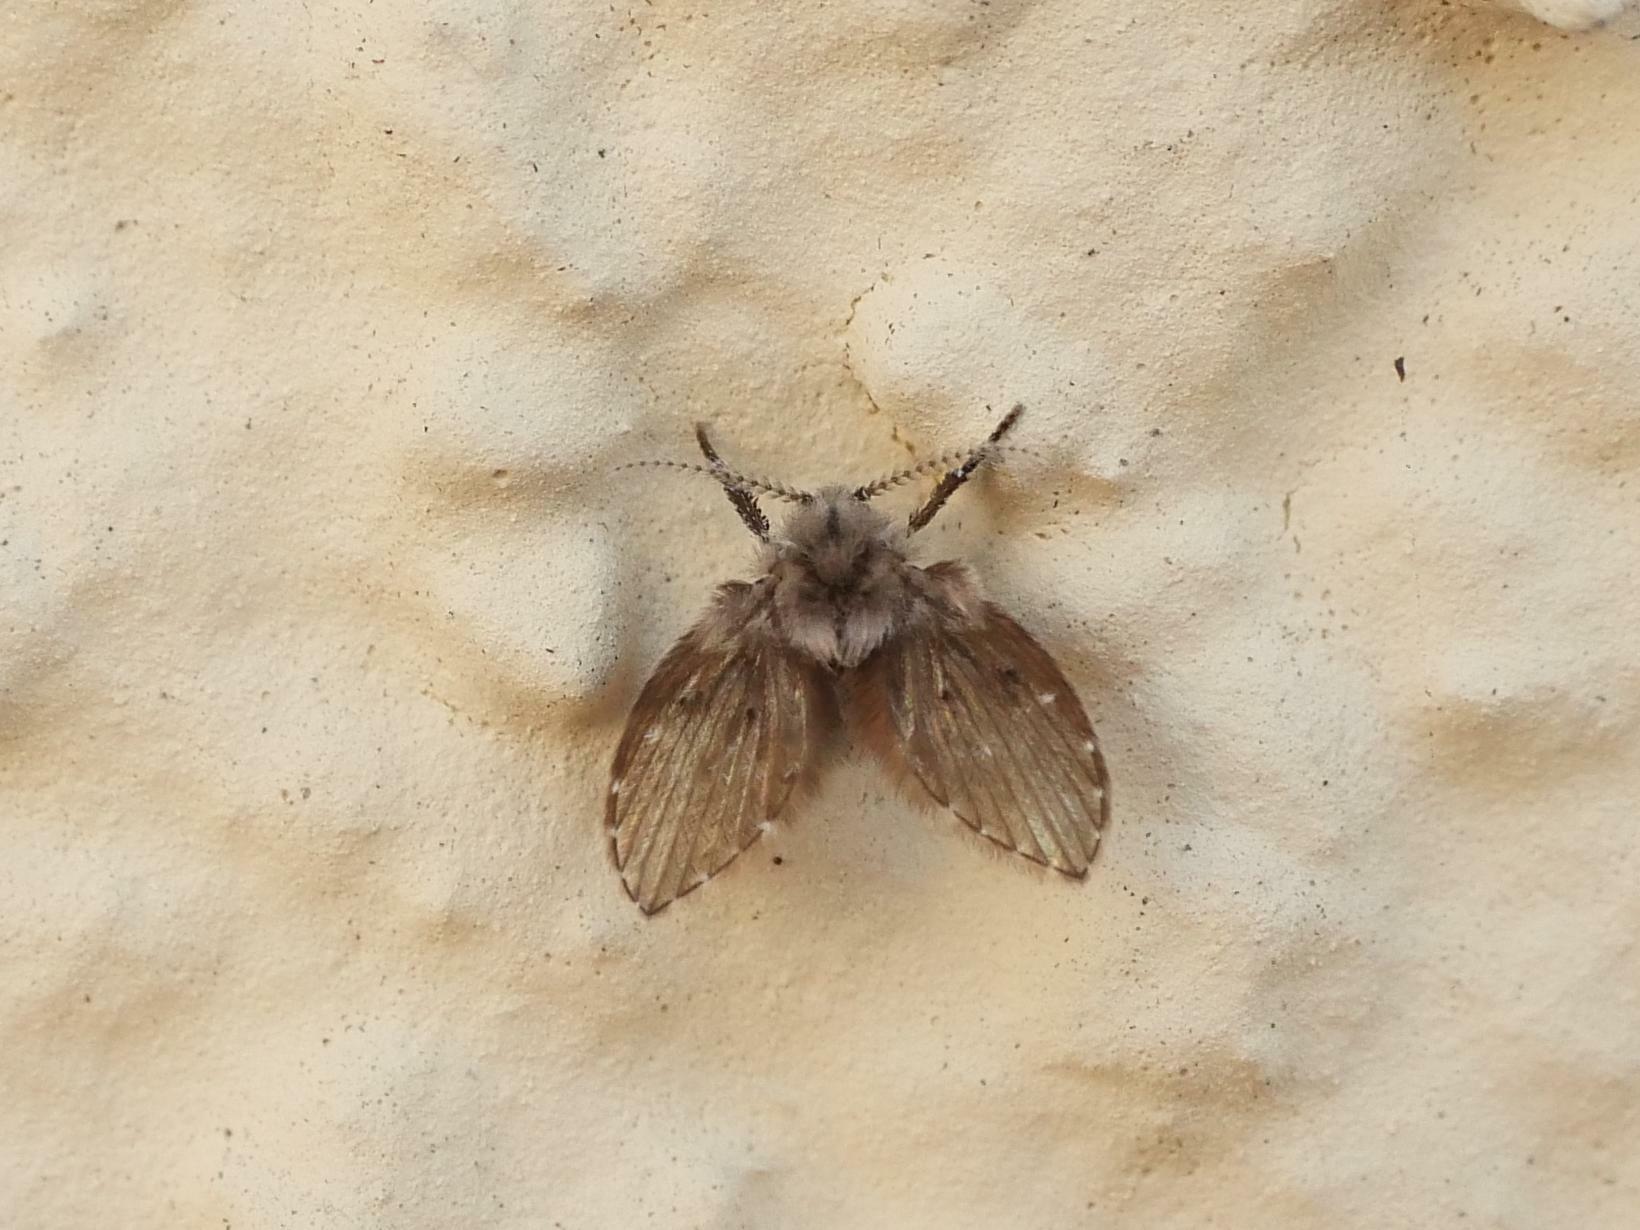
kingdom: Animalia
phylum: Arthropoda
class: Insecta
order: Diptera
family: Psychodidae
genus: Clogmia
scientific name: Clogmia albipunctatus
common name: White-spotted moth fly
